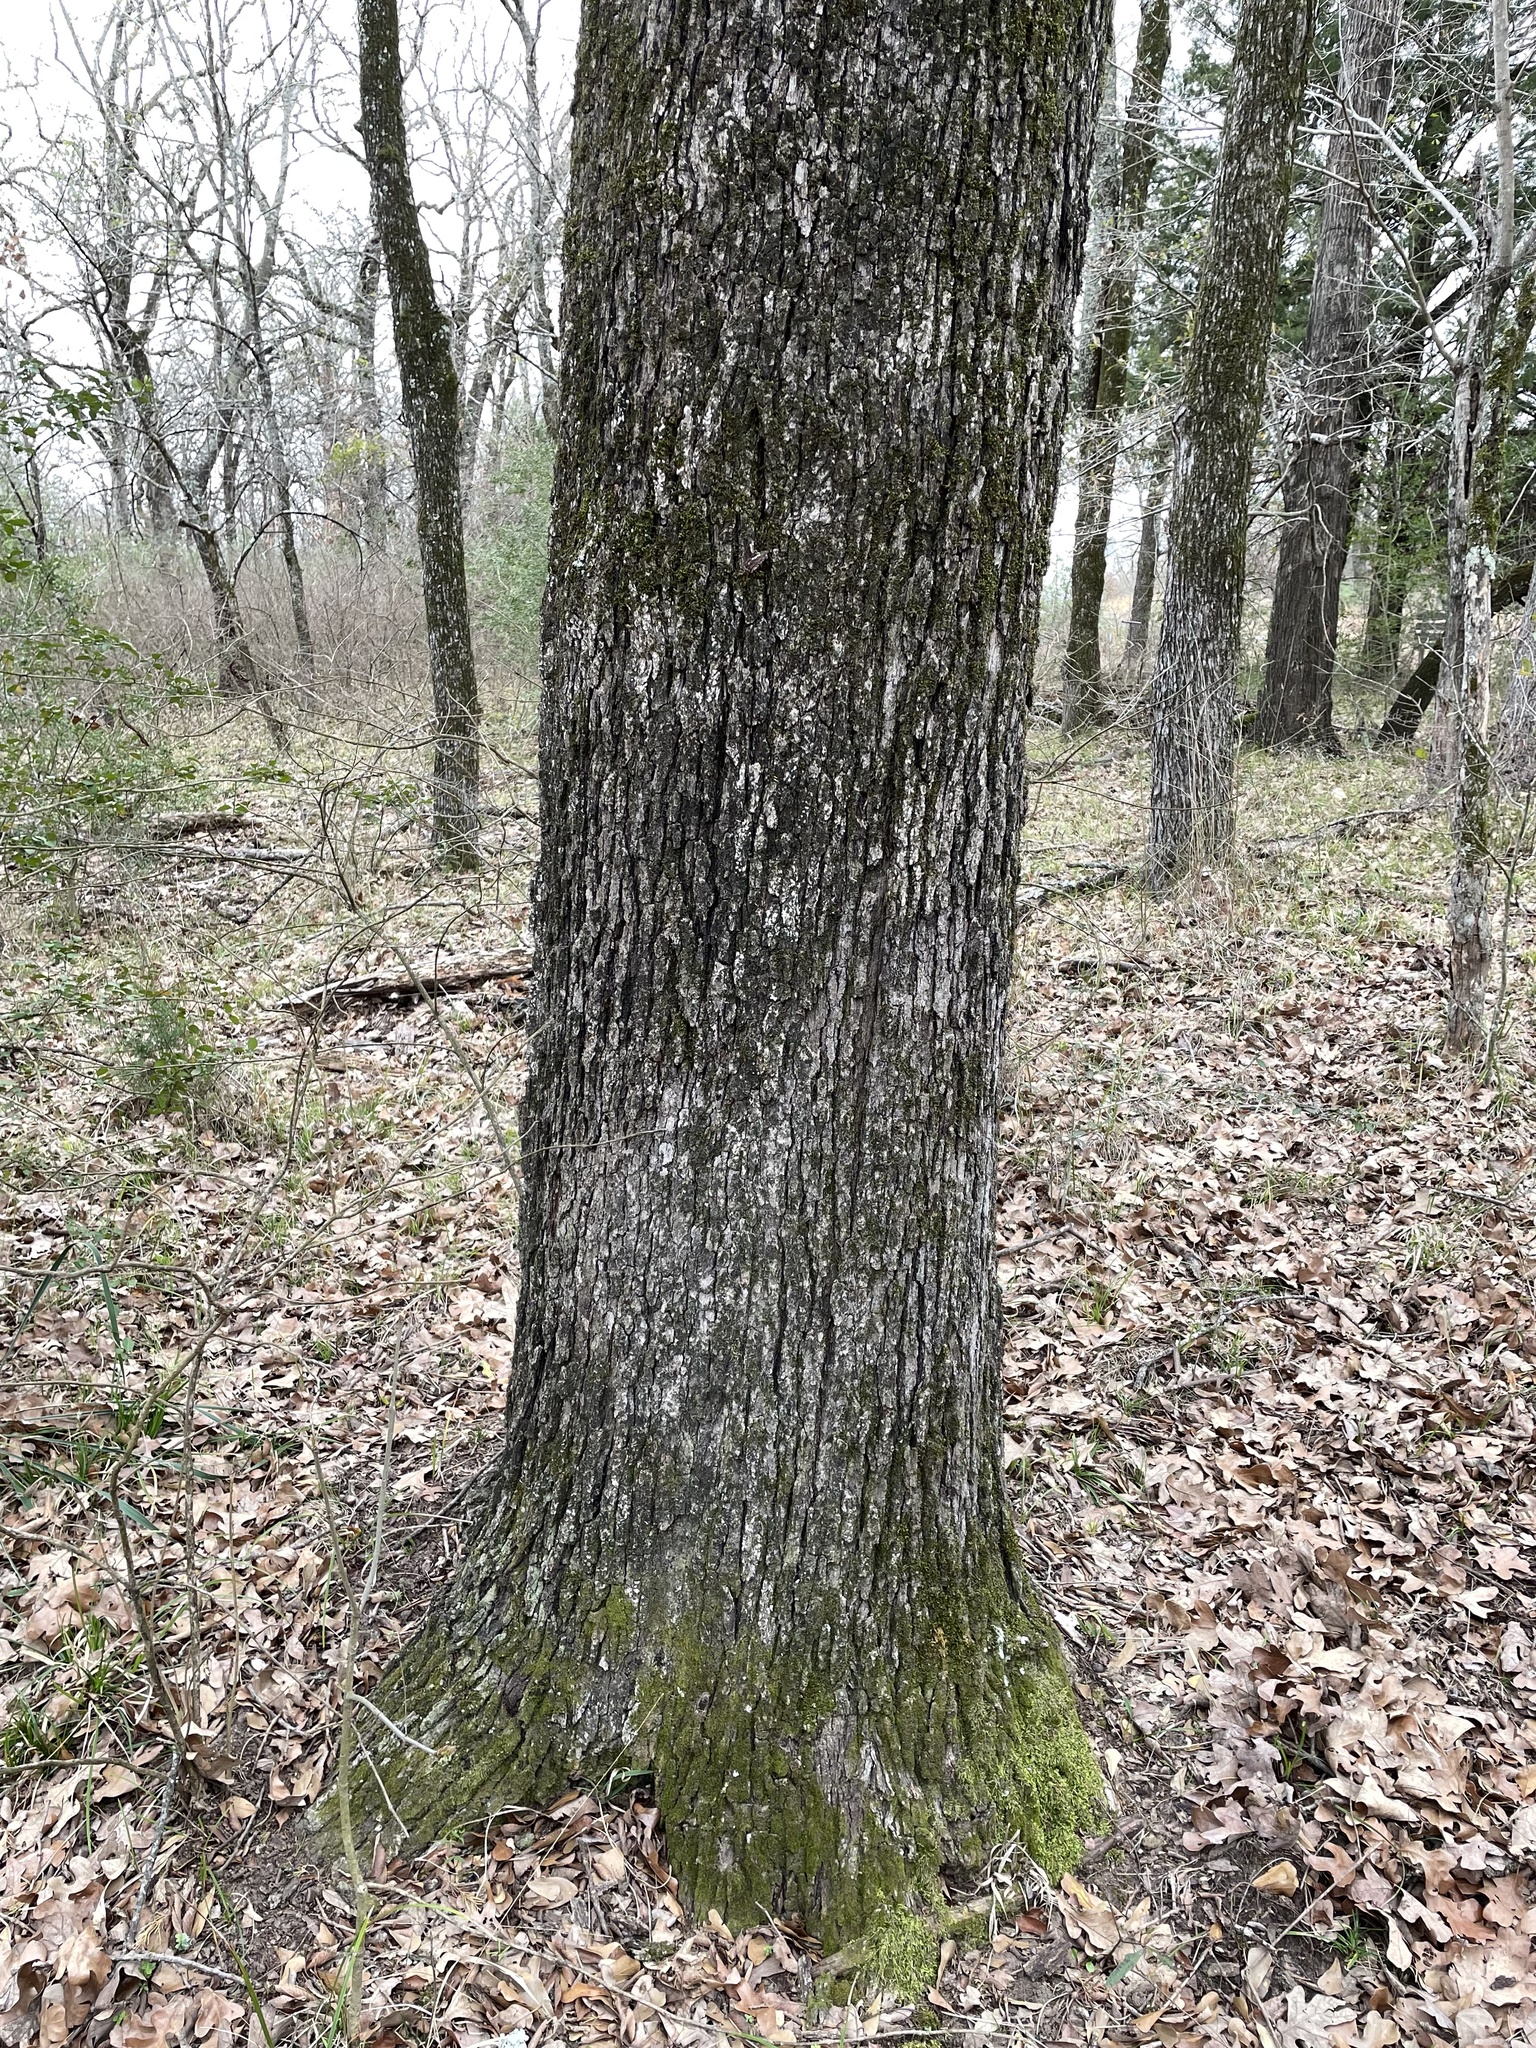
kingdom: Plantae
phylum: Tracheophyta
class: Magnoliopsida
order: Fagales
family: Fagaceae
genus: Quercus
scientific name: Quercus stellata
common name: Post oak
